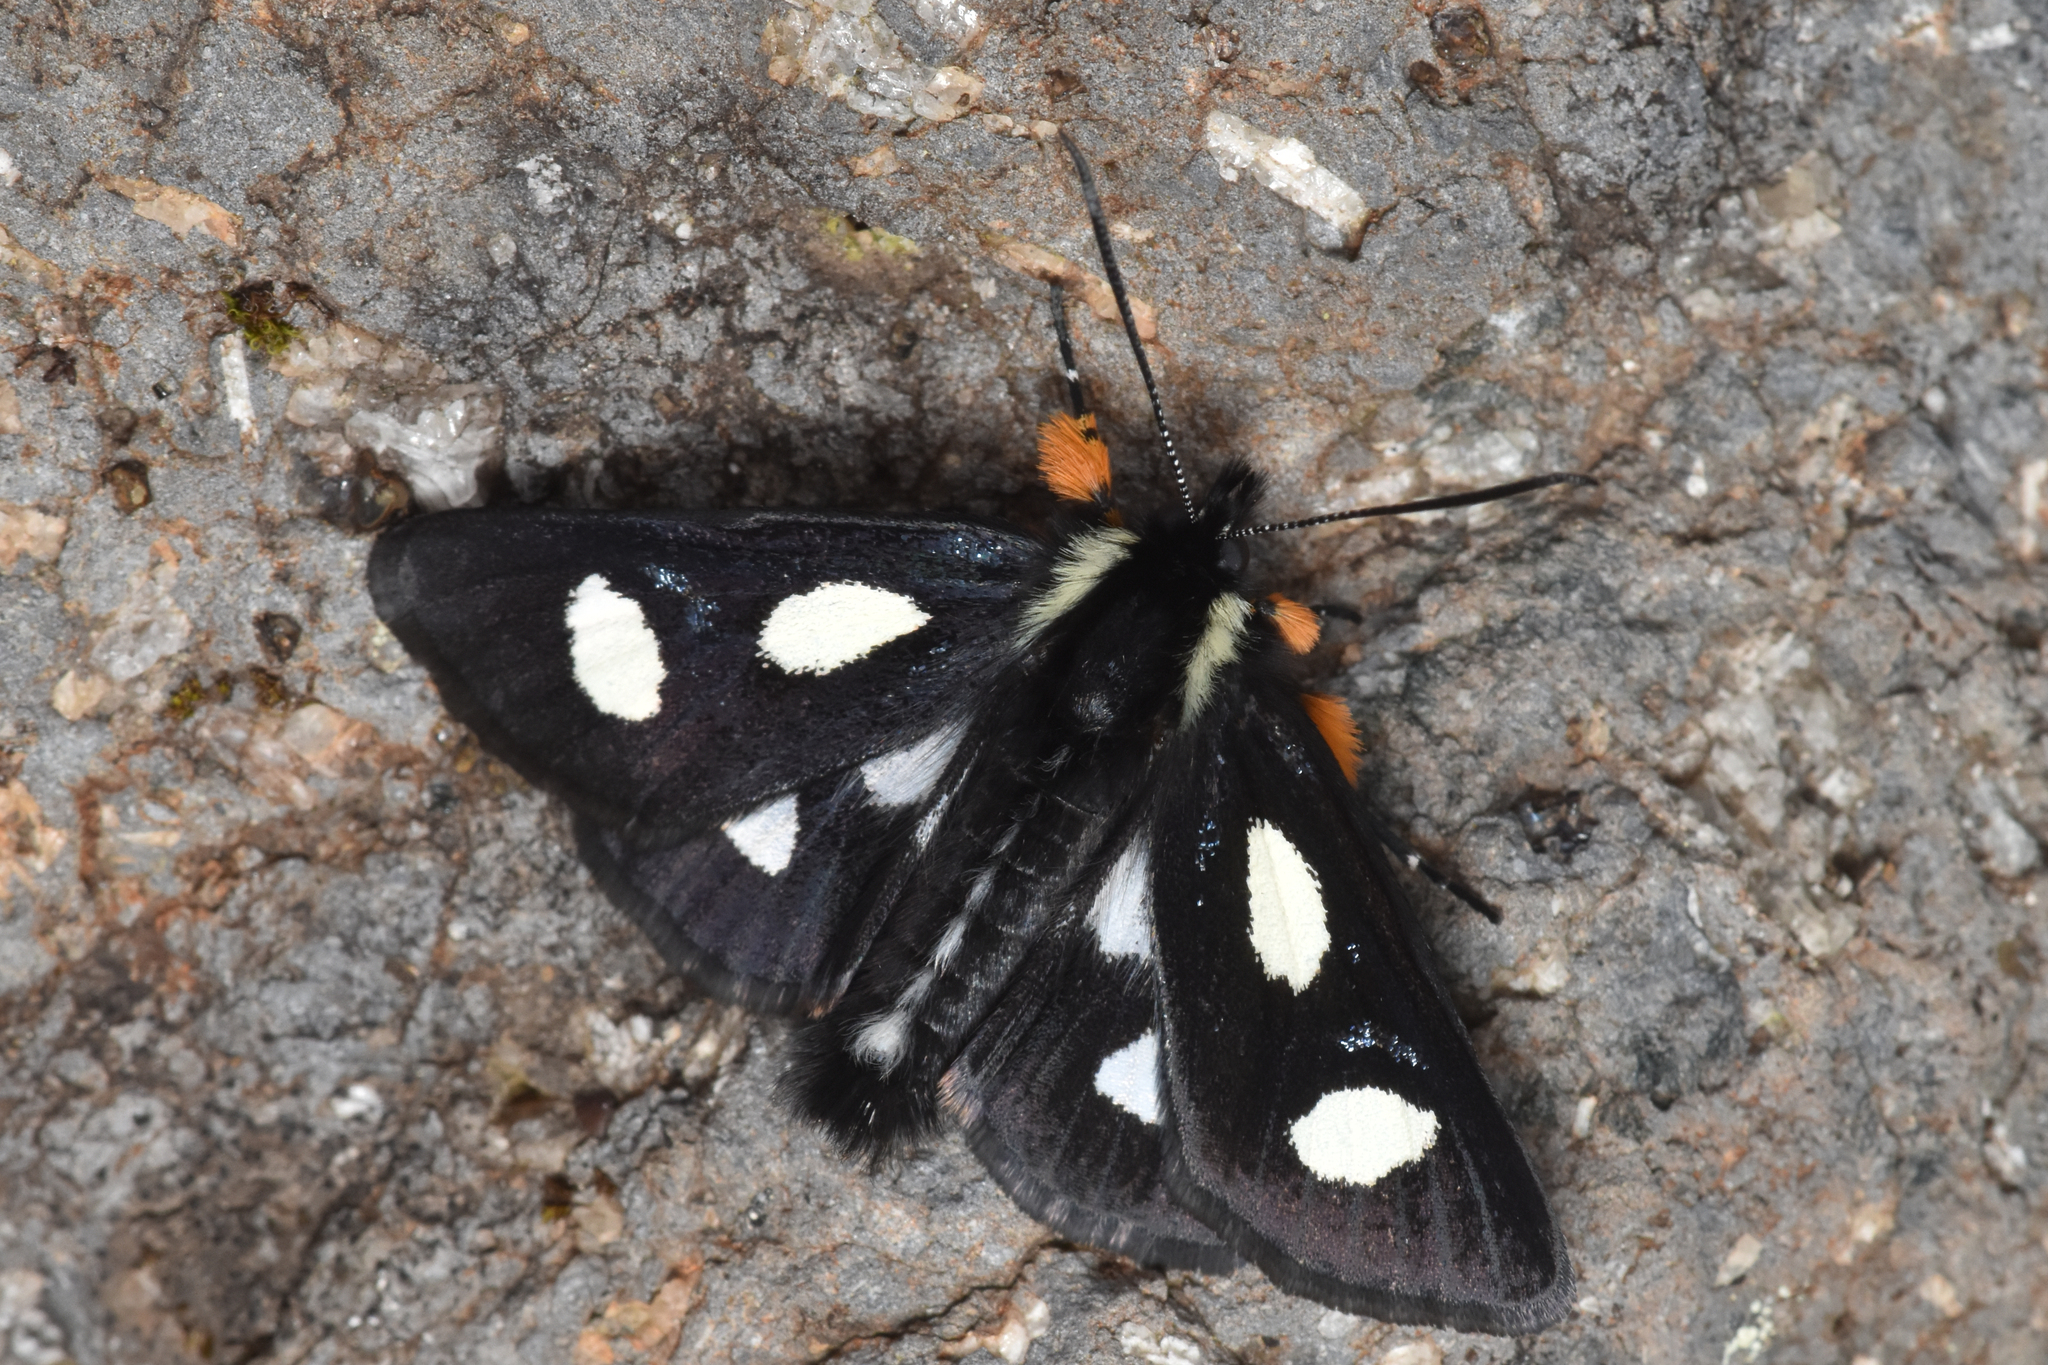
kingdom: Animalia
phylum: Arthropoda
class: Insecta
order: Lepidoptera
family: Noctuidae
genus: Alypia
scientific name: Alypia langtonii
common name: Fireweed caterpillar
